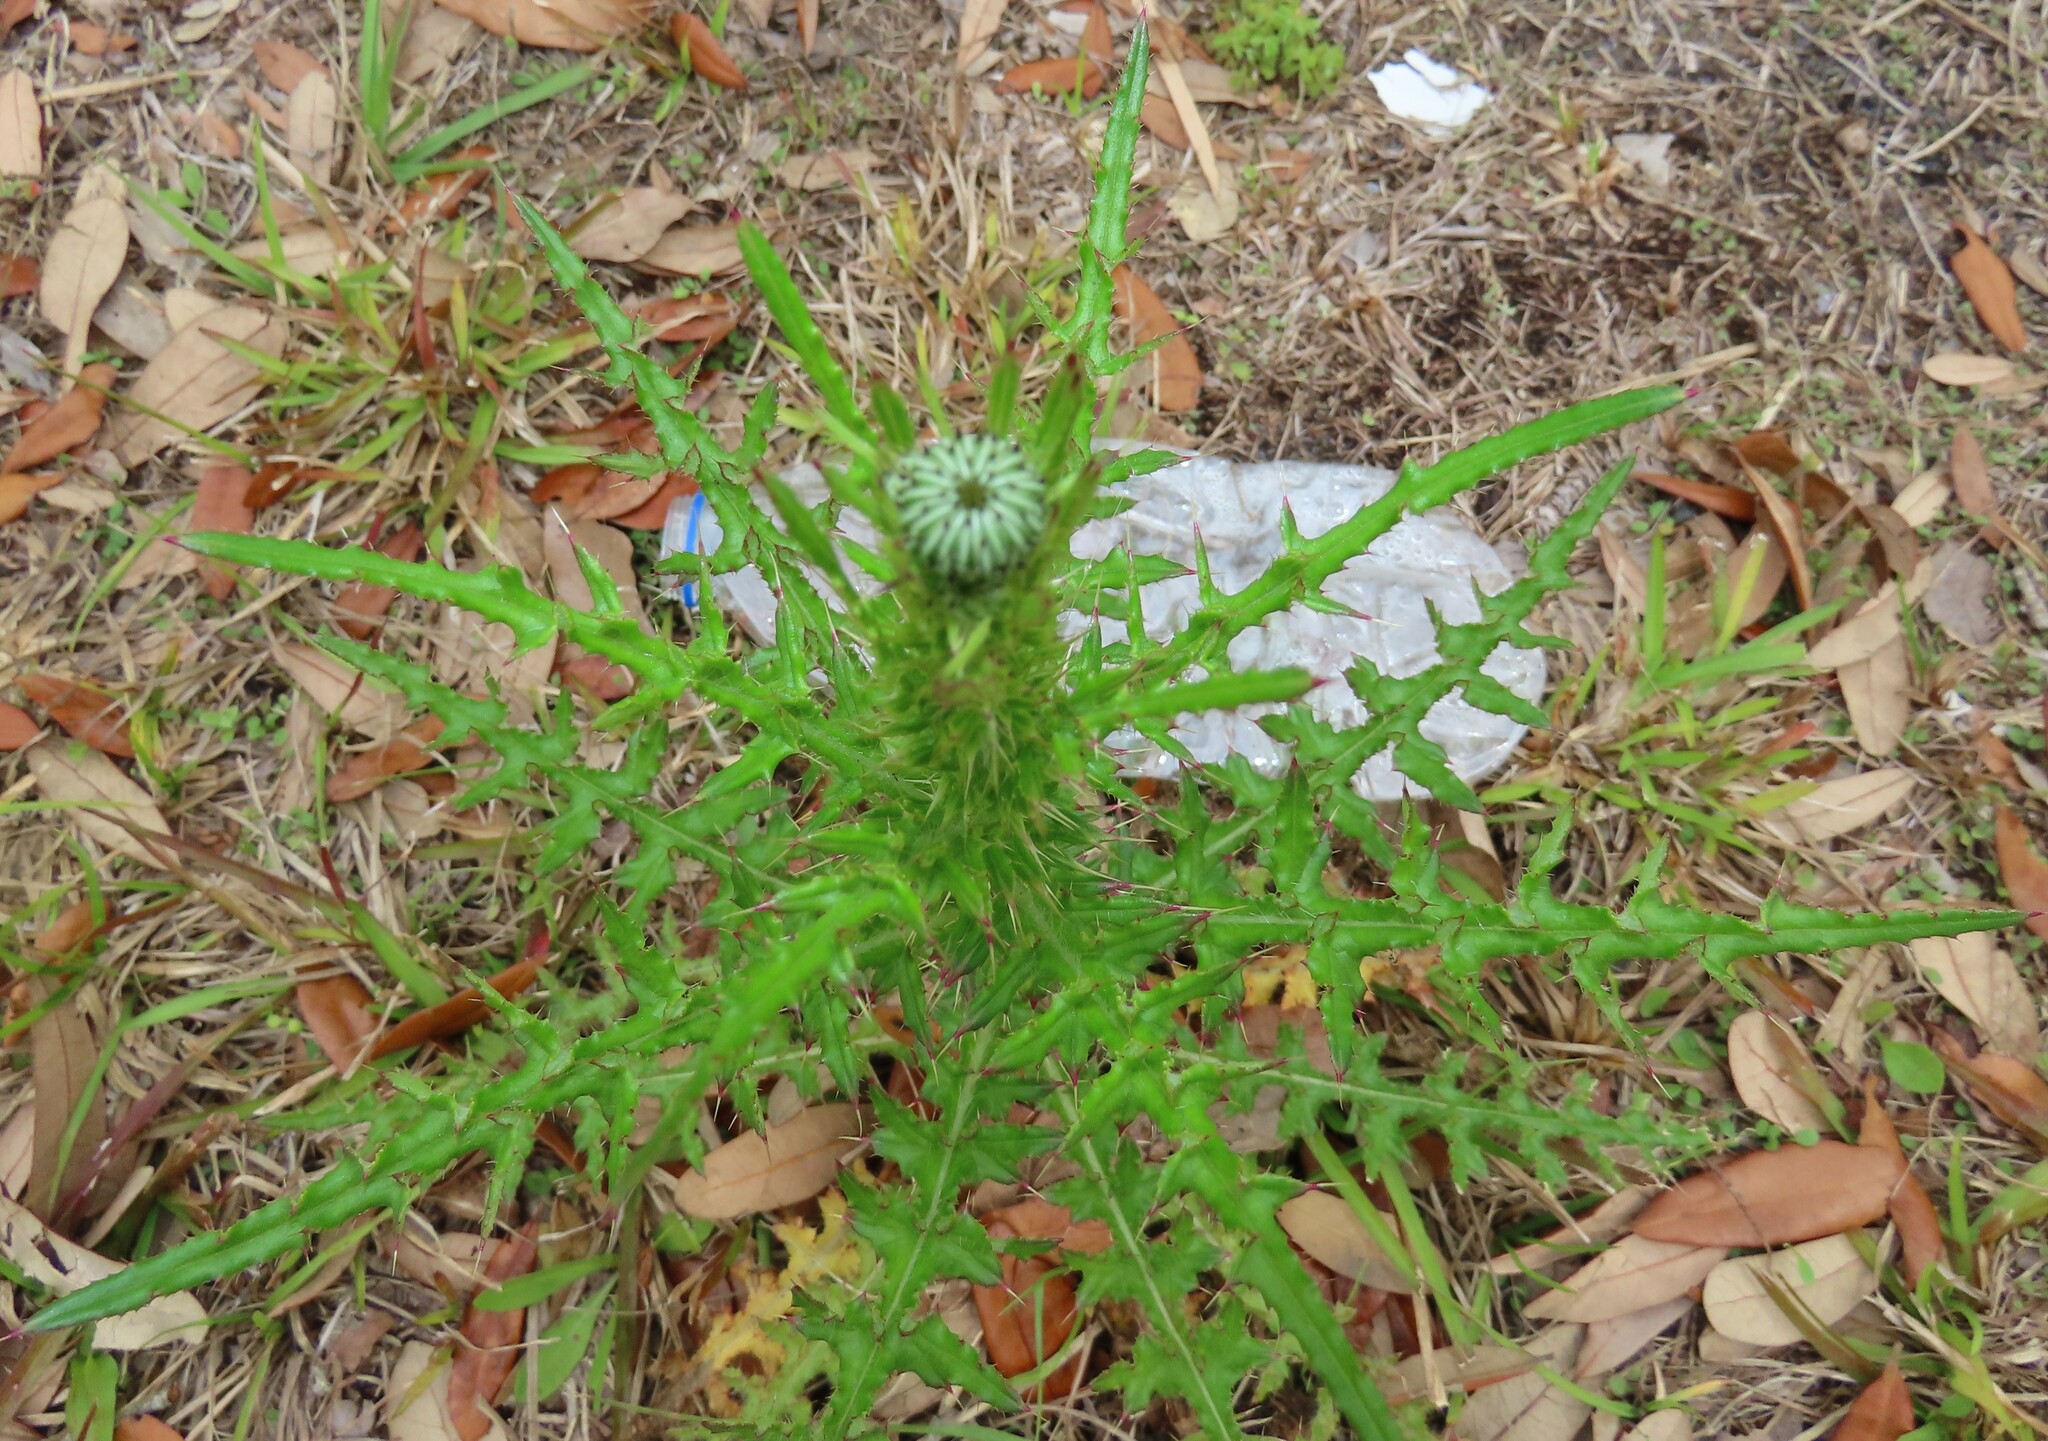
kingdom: Plantae
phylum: Tracheophyta
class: Magnoliopsida
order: Asterales
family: Asteraceae
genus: Cirsium
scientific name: Cirsium nuttalii
